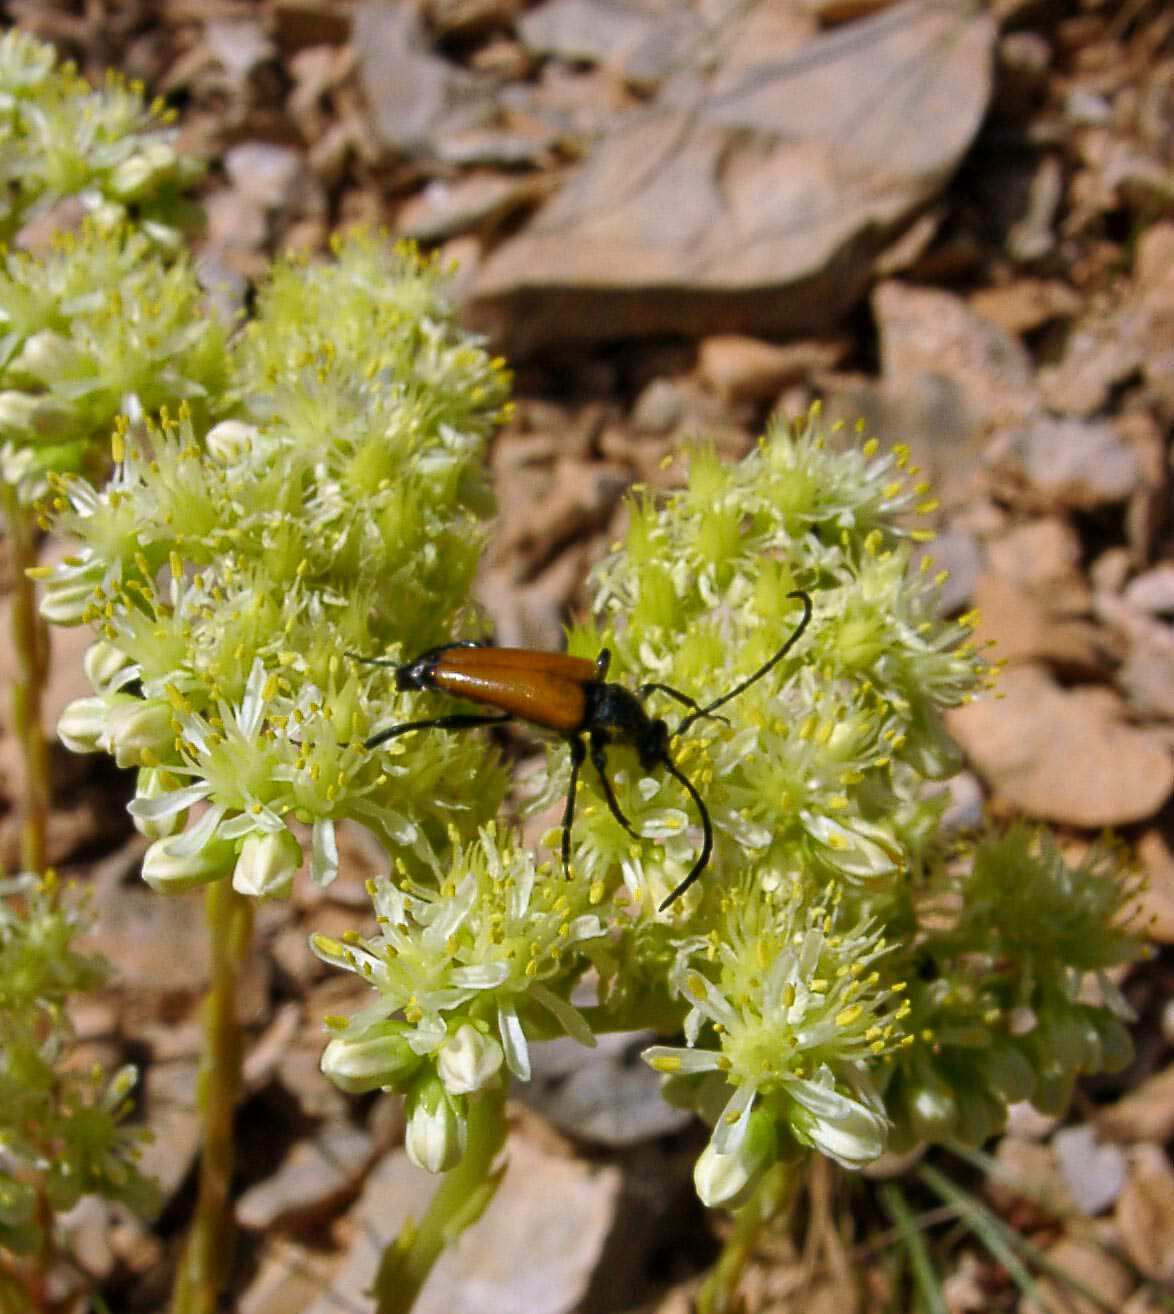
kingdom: Animalia
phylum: Arthropoda
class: Insecta
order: Coleoptera
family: Cerambycidae
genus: Paracorymbia
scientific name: Paracorymbia fulva
